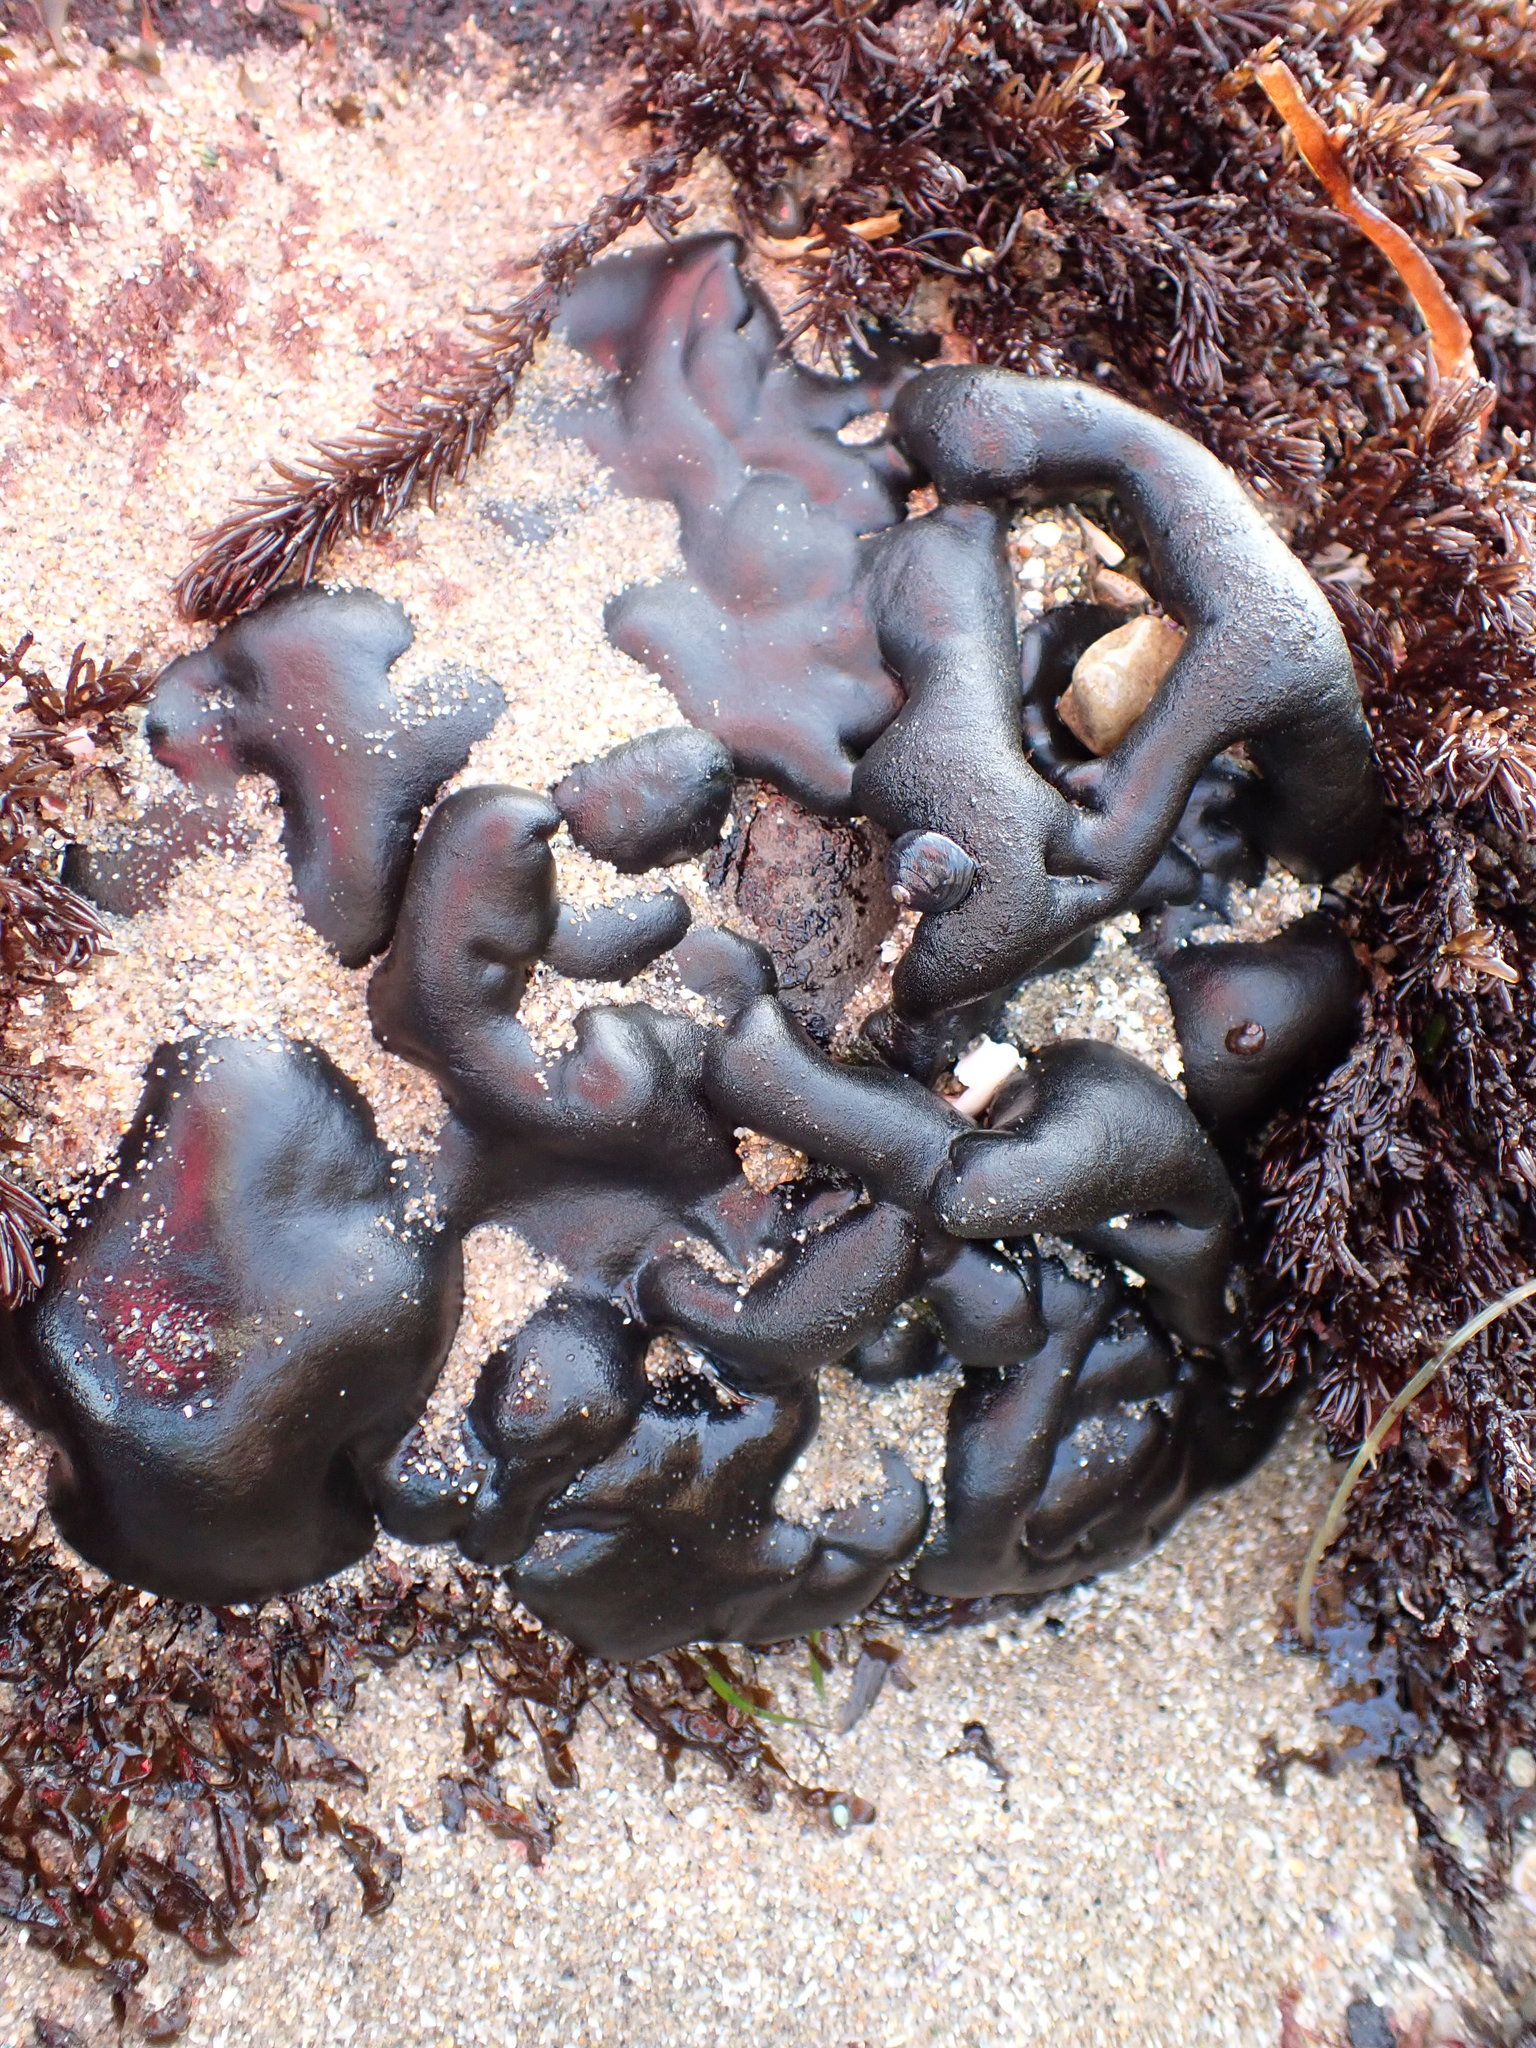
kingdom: Plantae
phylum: Chlorophyta
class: Ulvophyceae
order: Bryopsidales
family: Codiaceae
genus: Codium
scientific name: Codium setchellii
